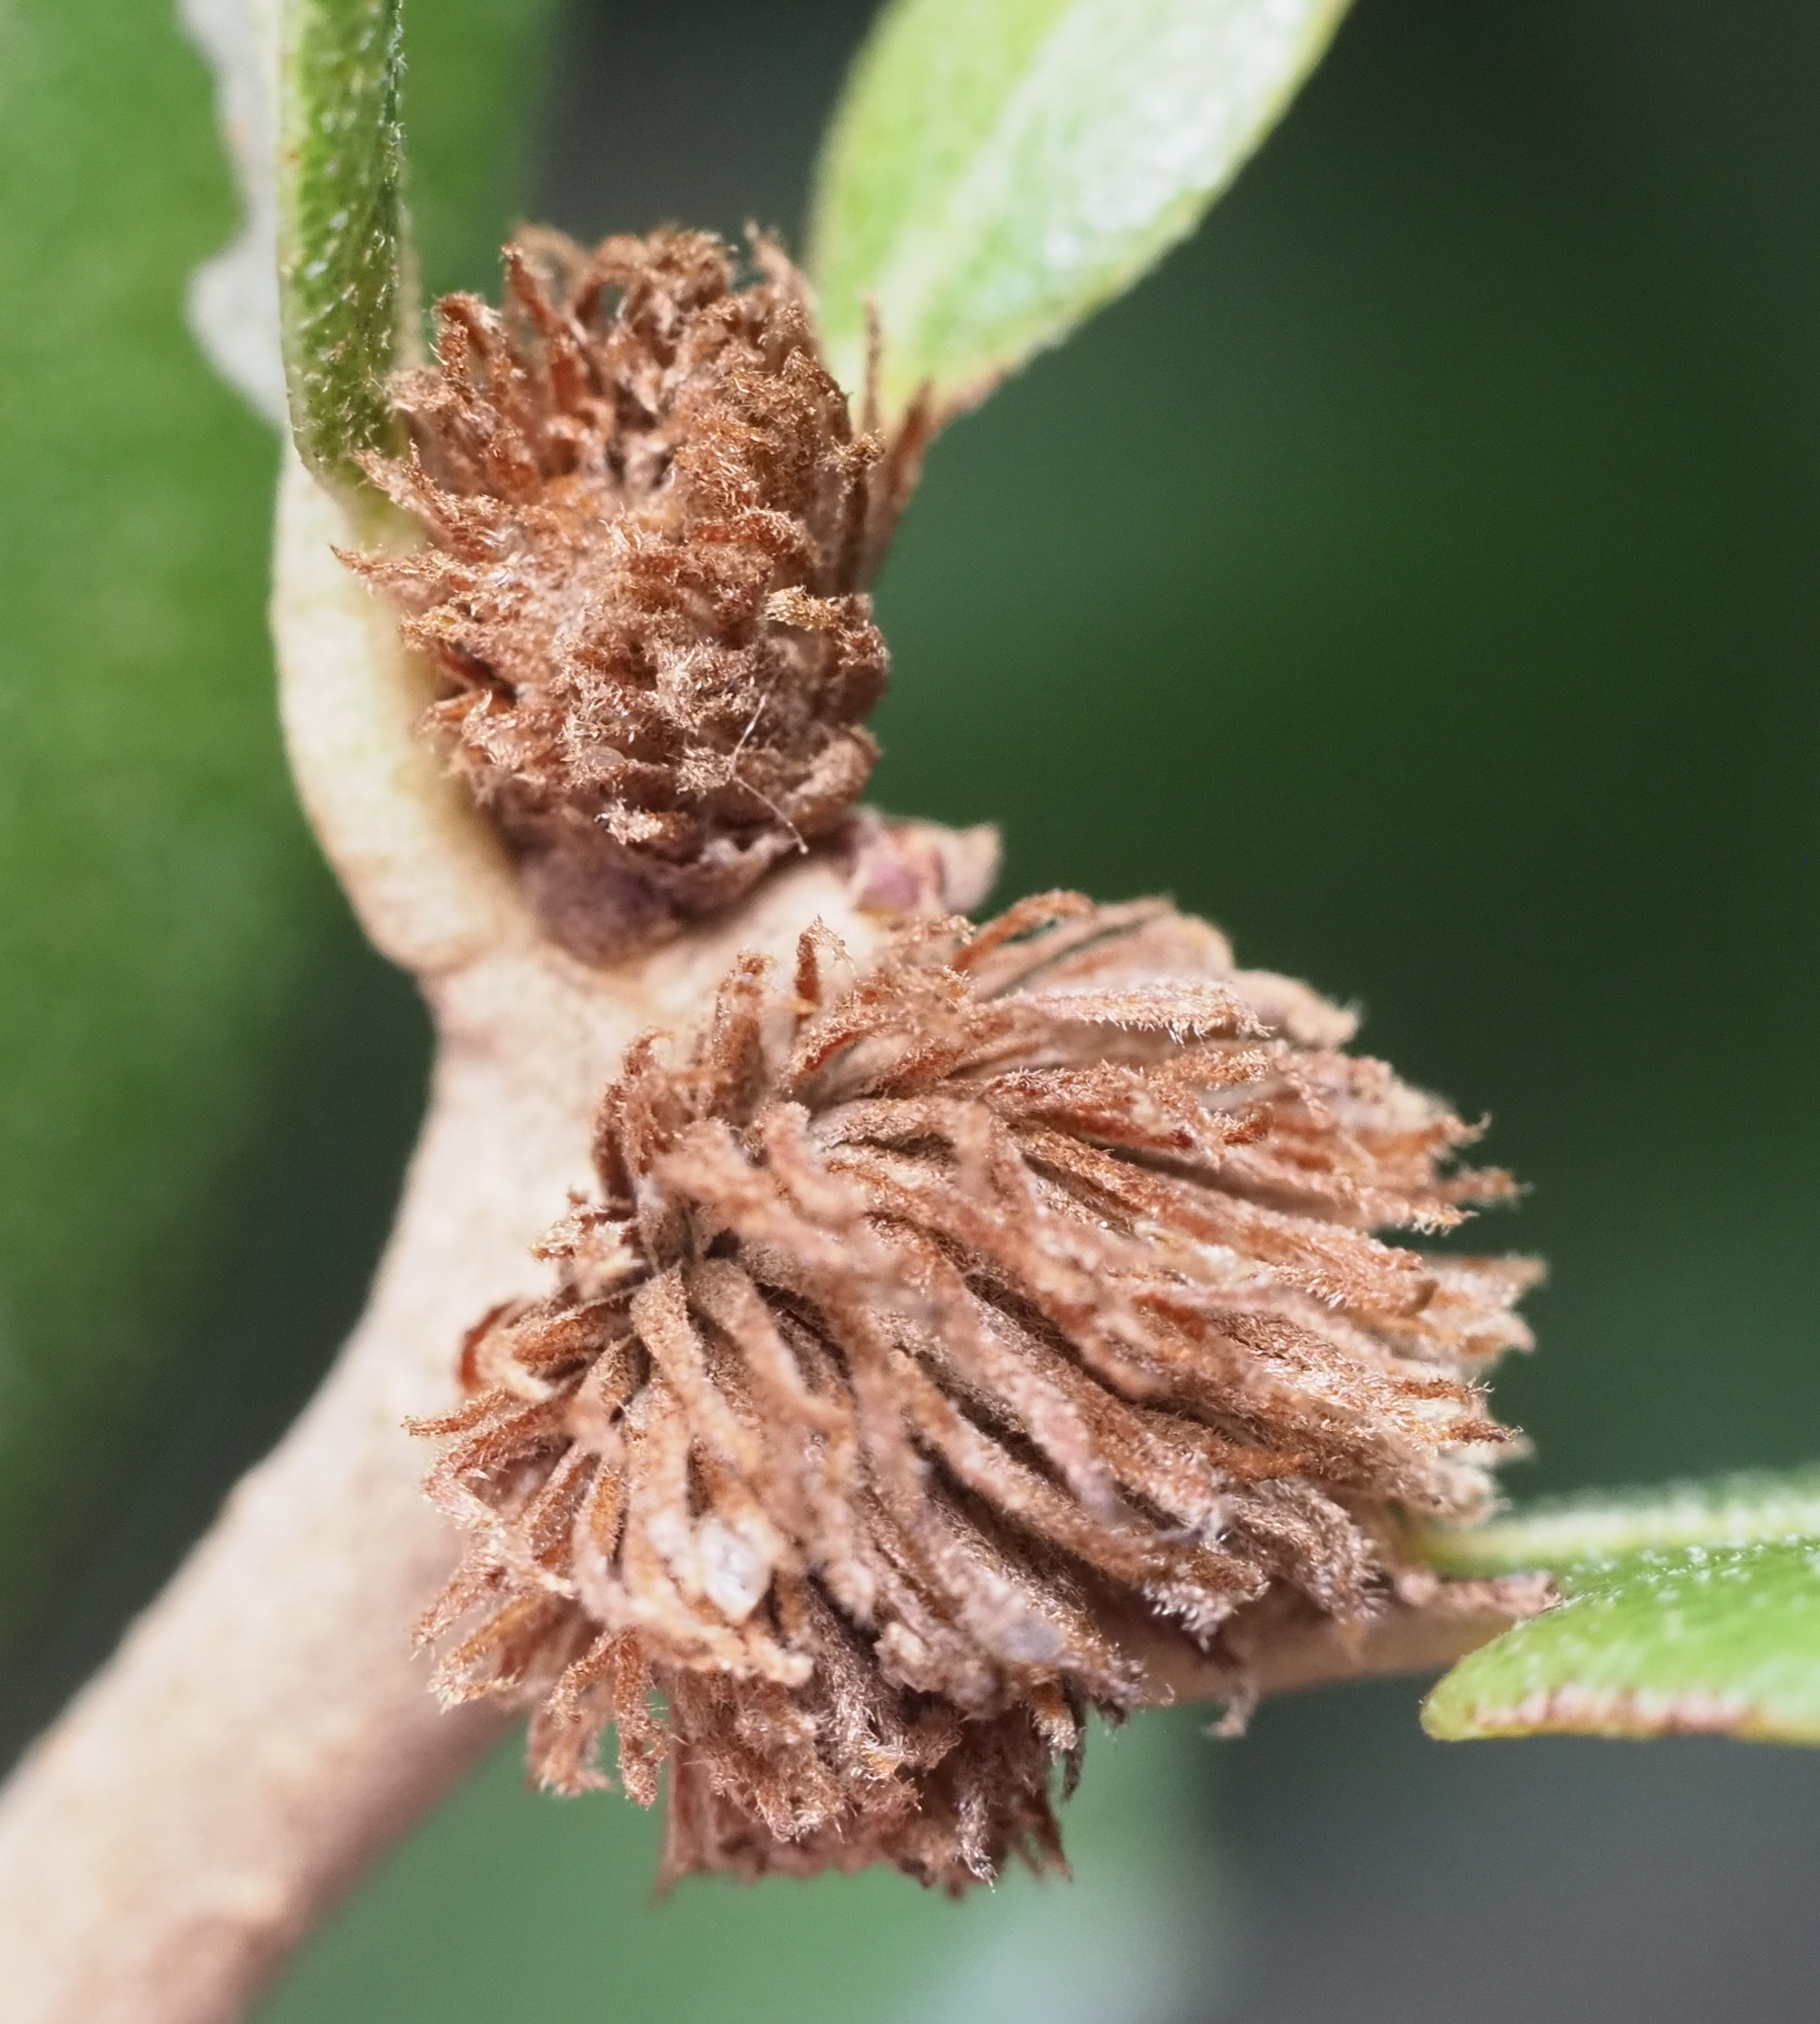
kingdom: Animalia
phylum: Arthropoda
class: Insecta
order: Hymenoptera
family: Cynipidae
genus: Andricus
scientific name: Andricus quercusfoliatus
